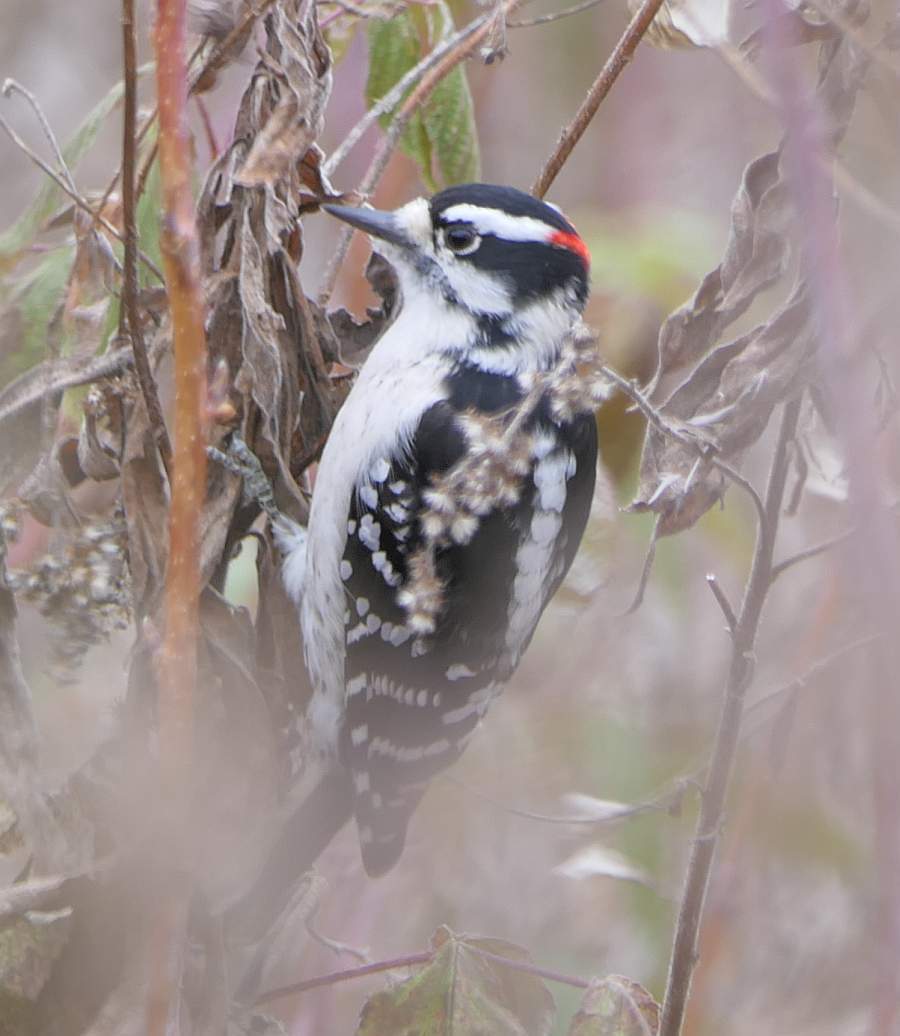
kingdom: Animalia
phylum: Chordata
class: Aves
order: Piciformes
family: Picidae
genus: Dryobates
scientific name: Dryobates pubescens
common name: Downy woodpecker
